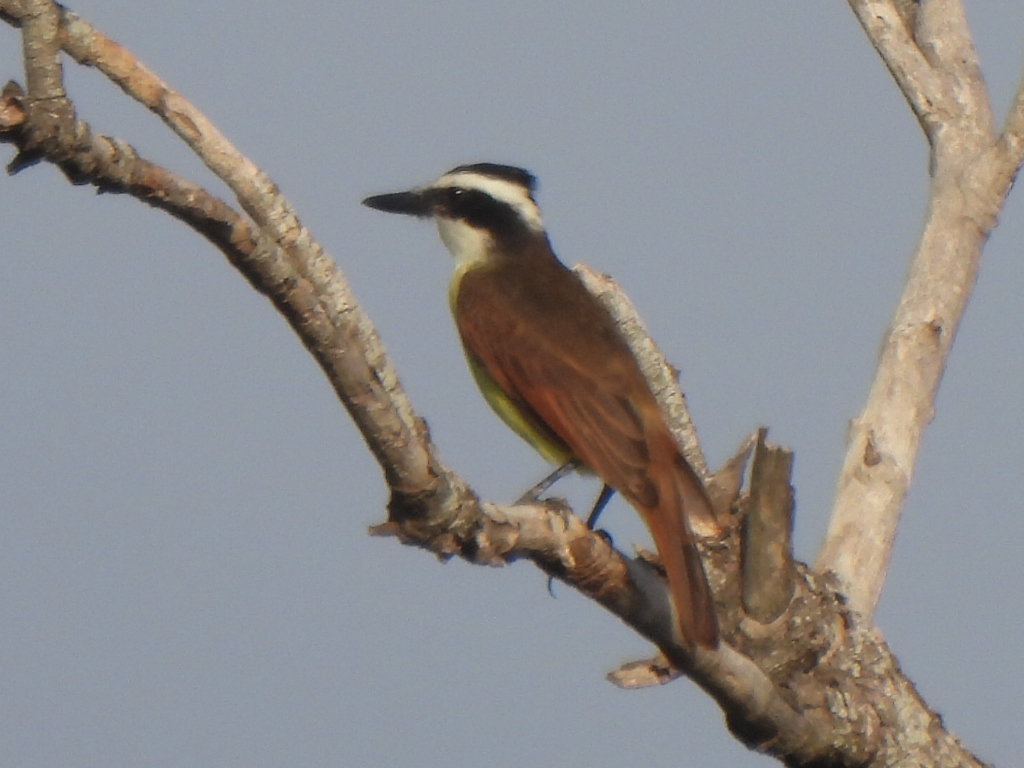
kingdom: Animalia
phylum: Chordata
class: Aves
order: Passeriformes
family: Tyrannidae
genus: Pitangus
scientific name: Pitangus sulphuratus
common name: Great kiskadee
